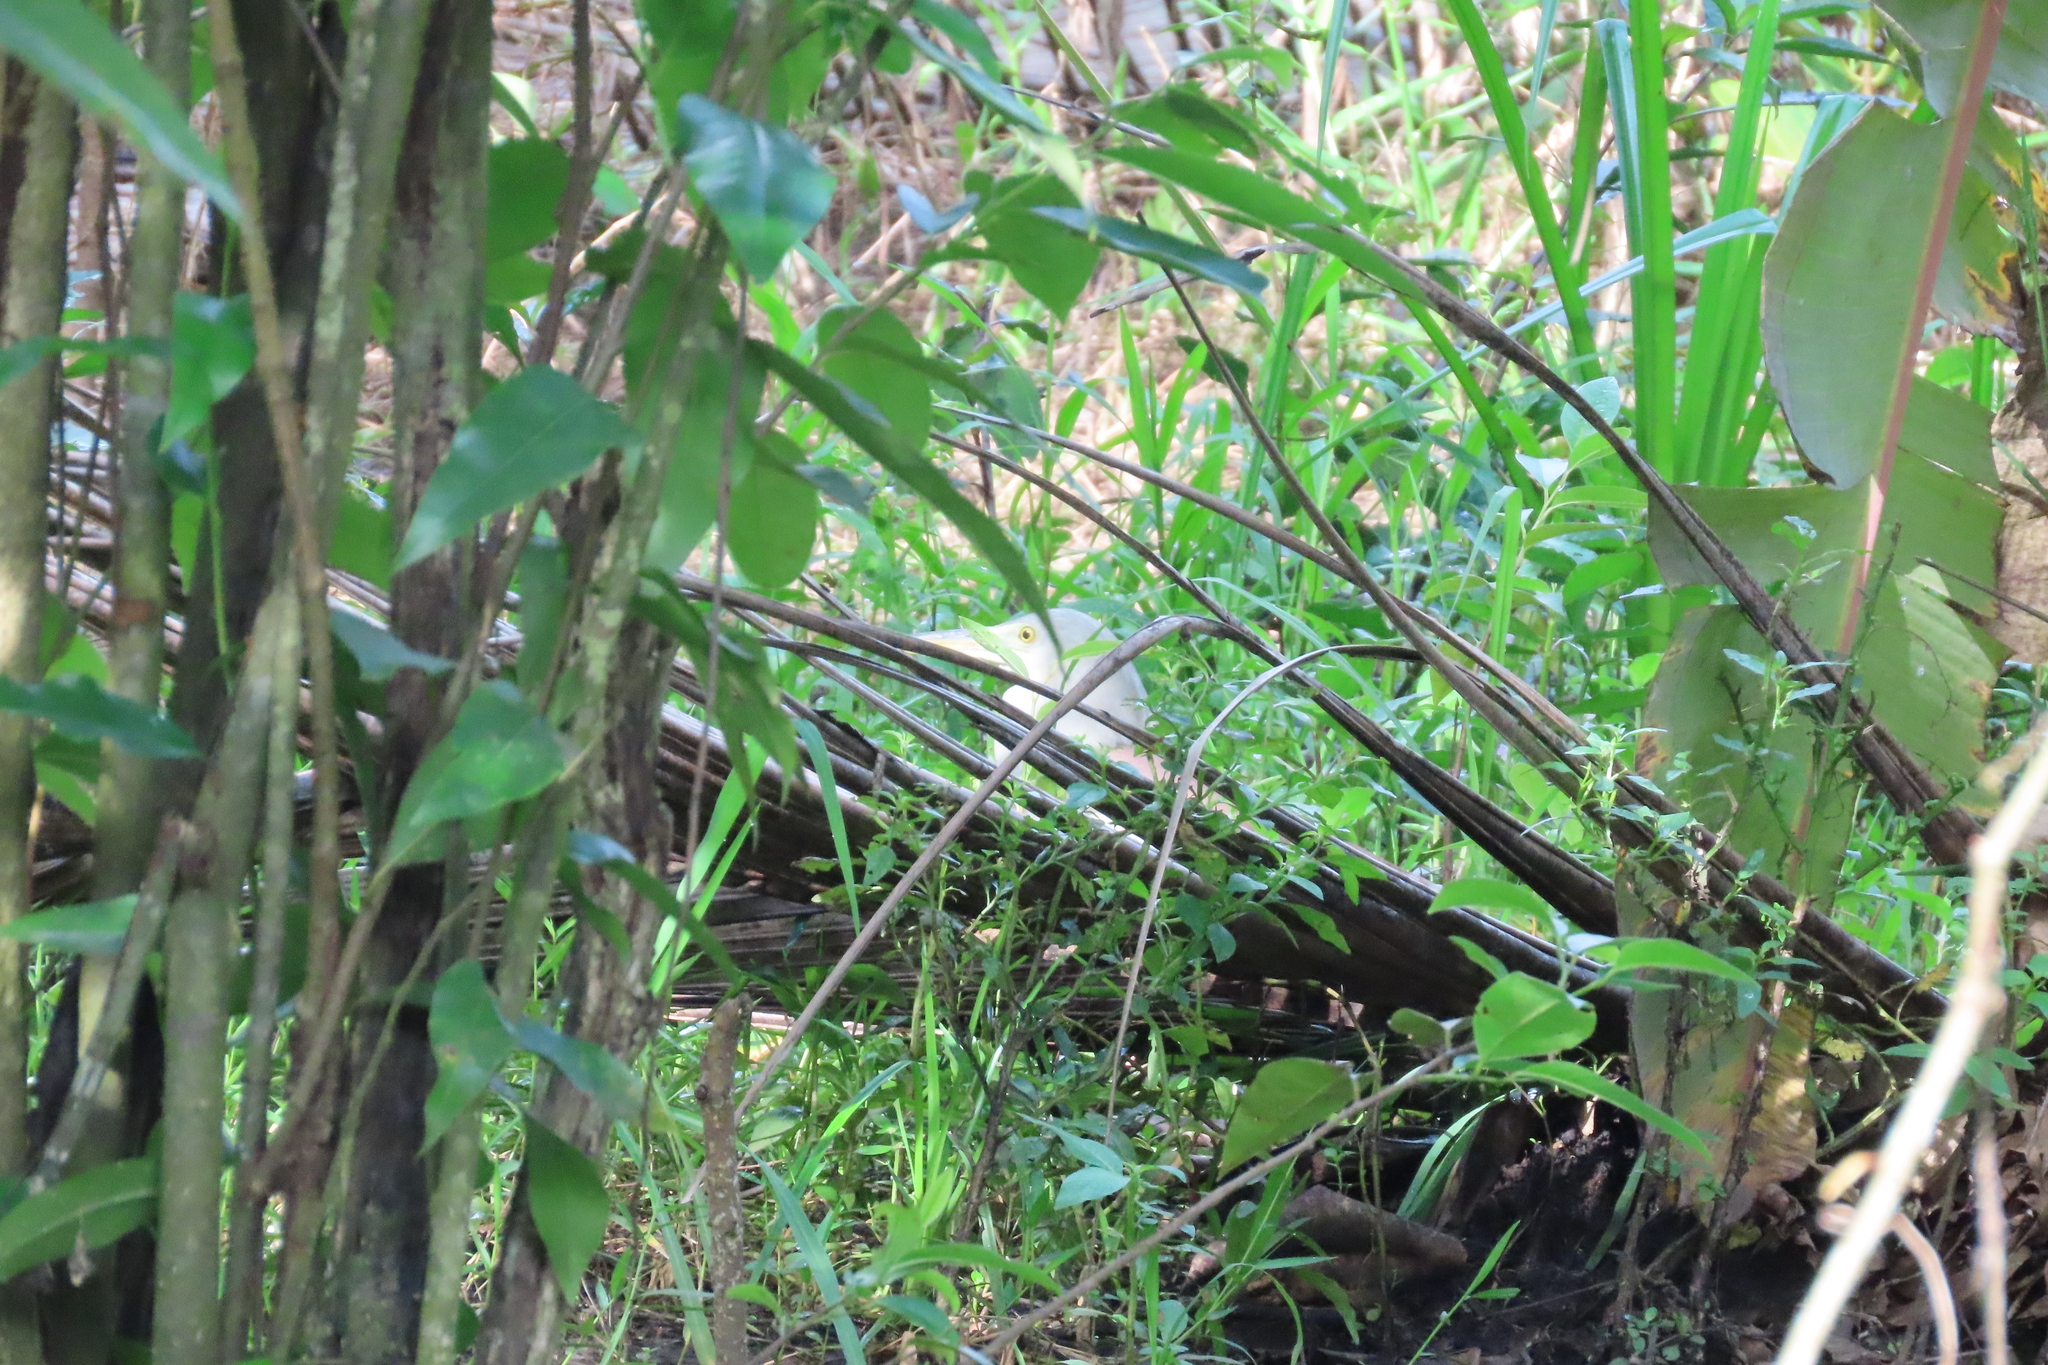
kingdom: Animalia
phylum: Chordata
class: Aves
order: Pelecaniformes
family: Ardeidae
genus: Ardeola
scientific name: Ardeola grayii
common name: Indian pond heron
